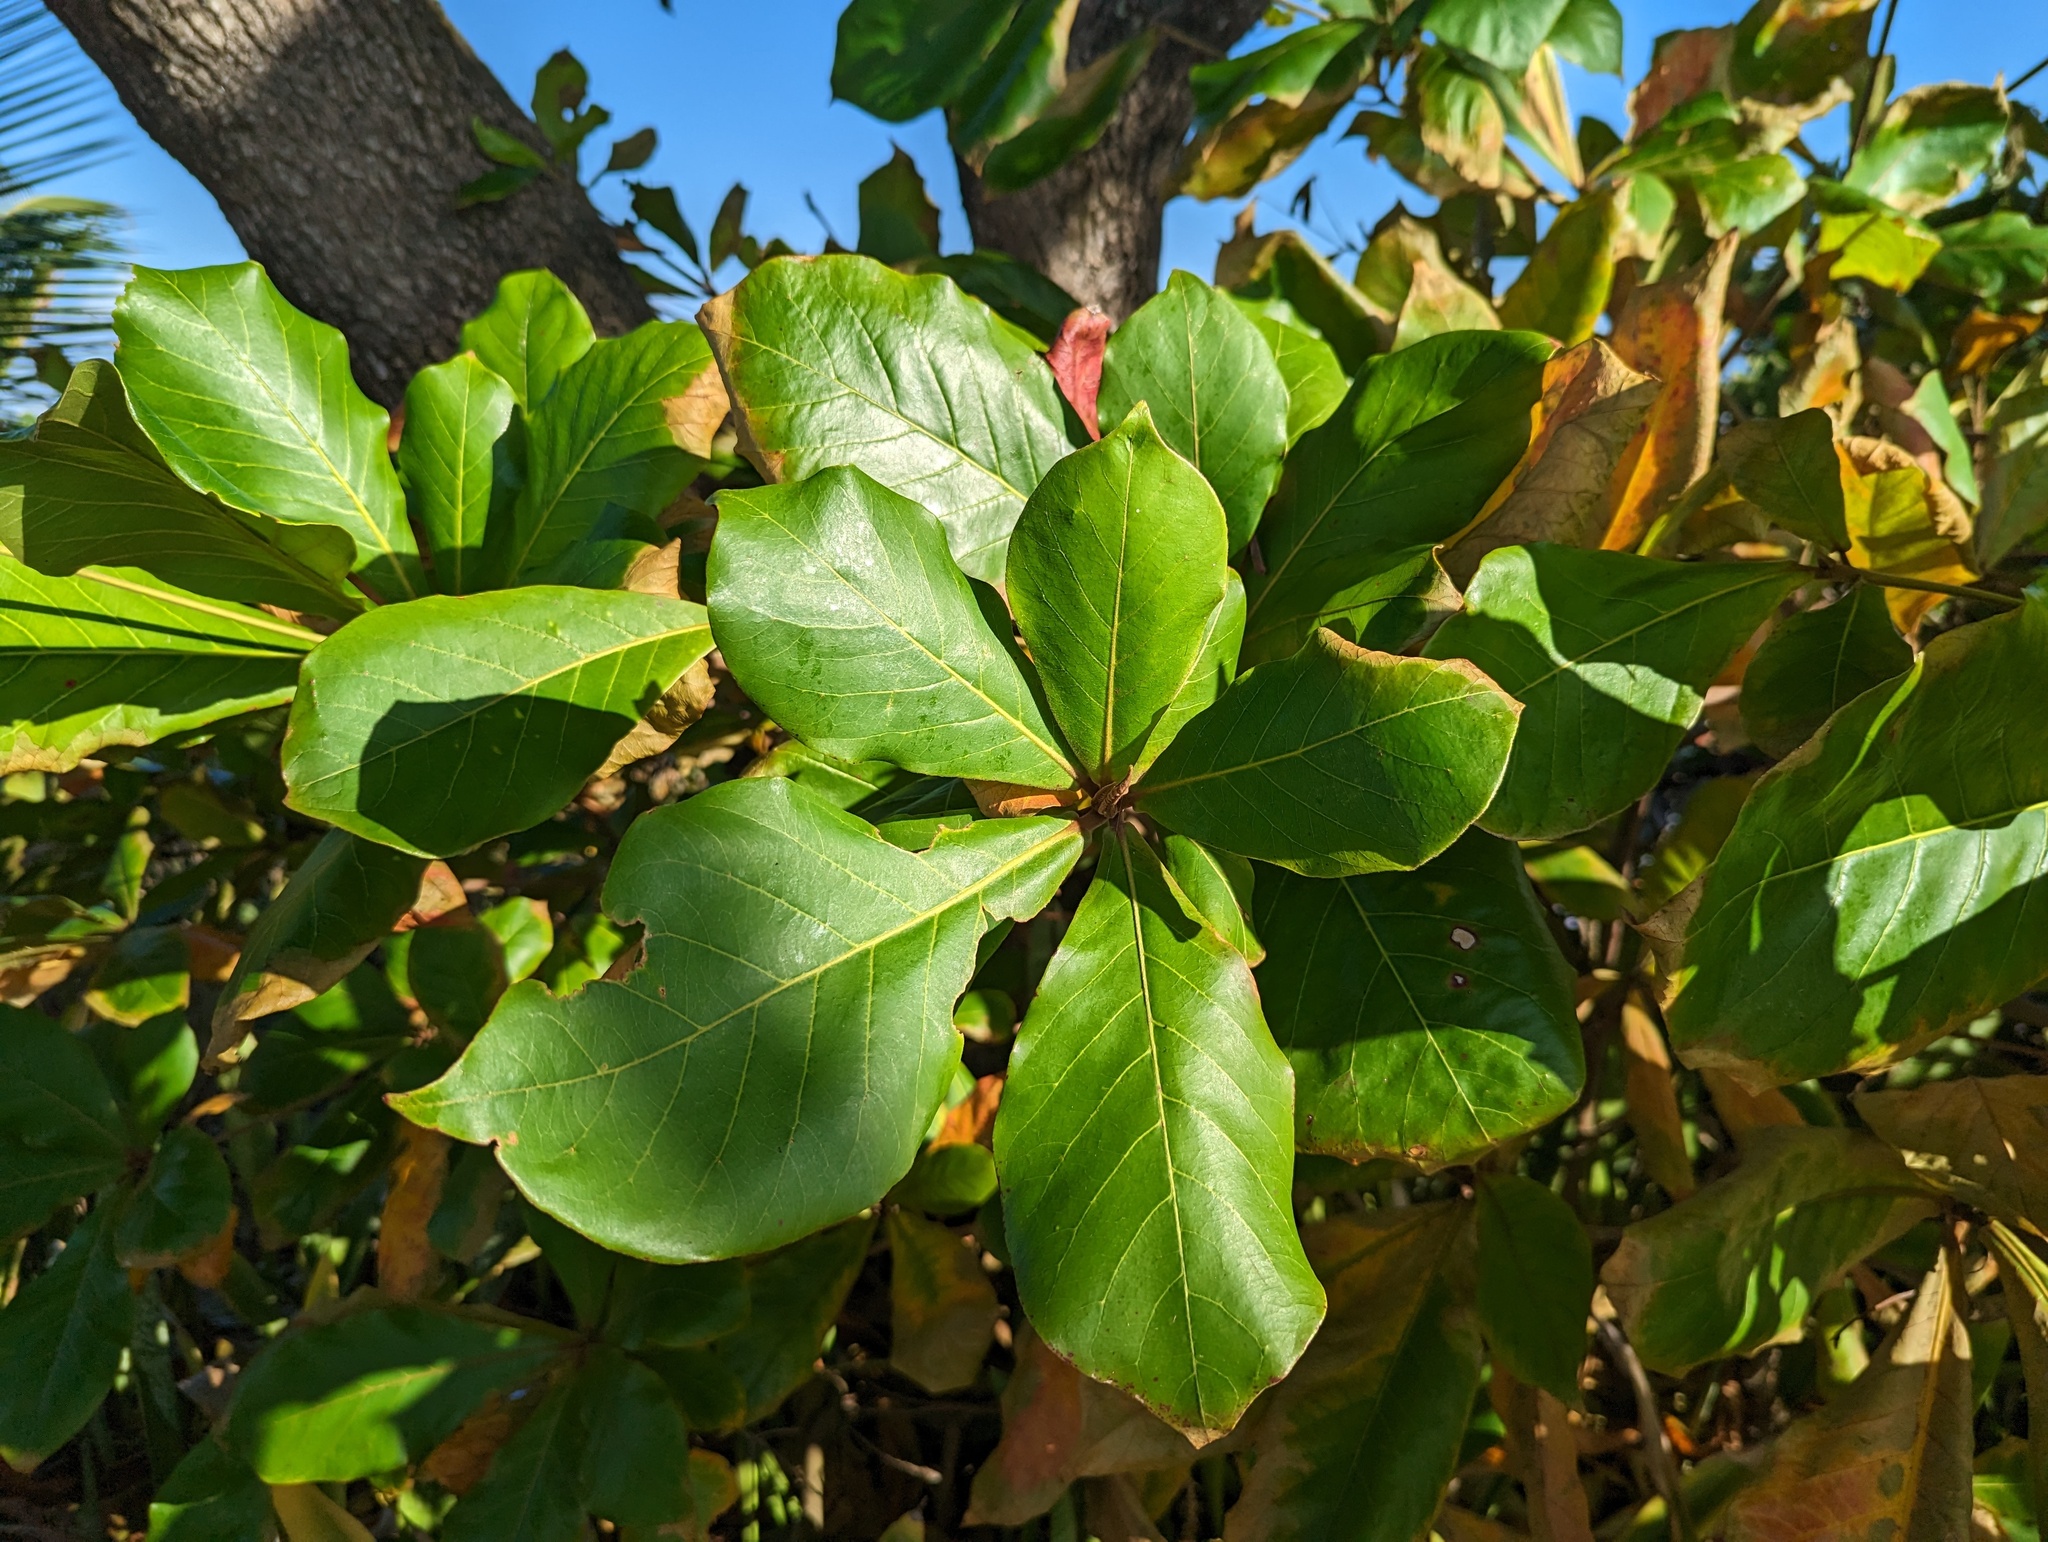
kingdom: Plantae
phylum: Tracheophyta
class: Magnoliopsida
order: Myrtales
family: Combretaceae
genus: Terminalia
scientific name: Terminalia catappa
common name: Tropical almond
